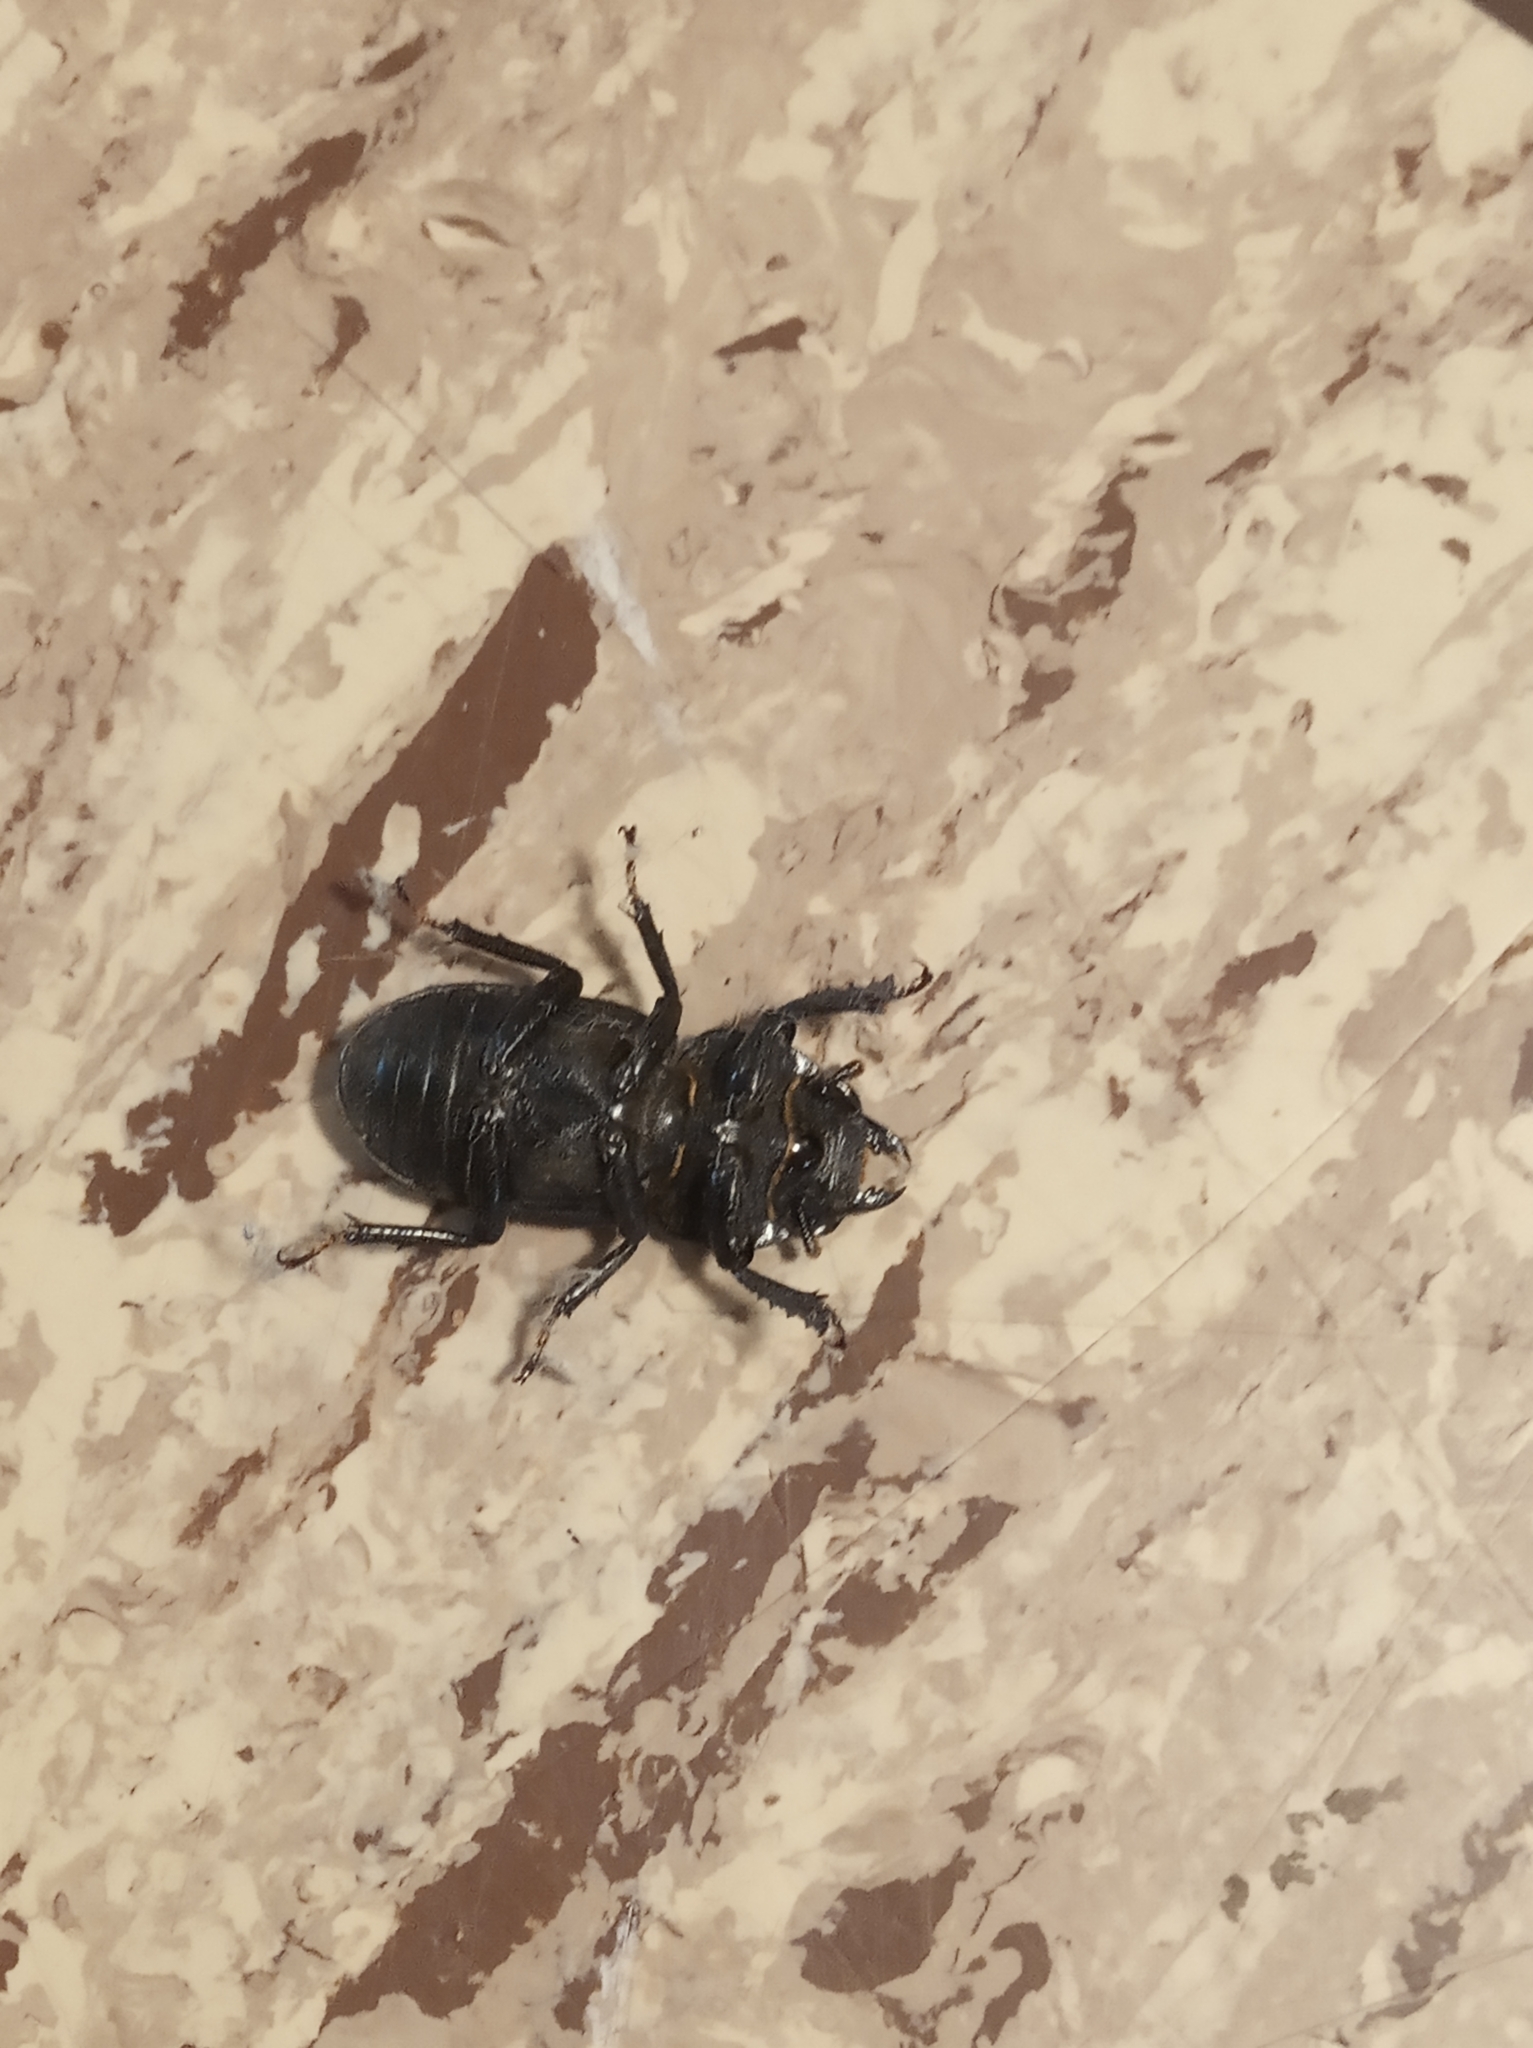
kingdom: Animalia
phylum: Arthropoda
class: Insecta
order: Coleoptera
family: Lucanidae
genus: Dorcus
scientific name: Dorcus parallelipipedus
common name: Lesser stag beetle
